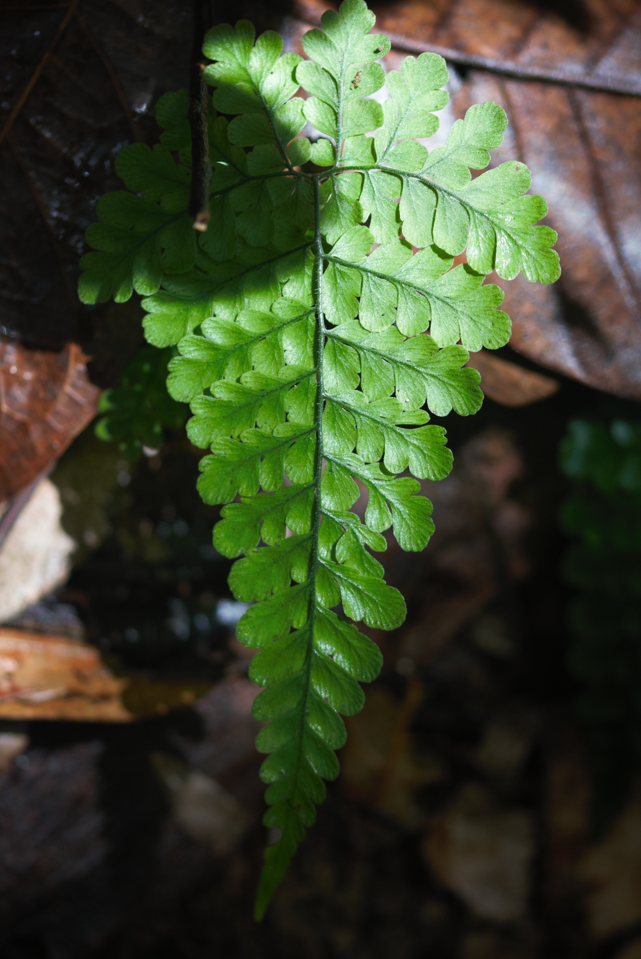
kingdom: Plantae
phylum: Tracheophyta
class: Polypodiopsida
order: Polypodiales
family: Tectariaceae
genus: Triplophyllum
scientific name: Triplophyllum
